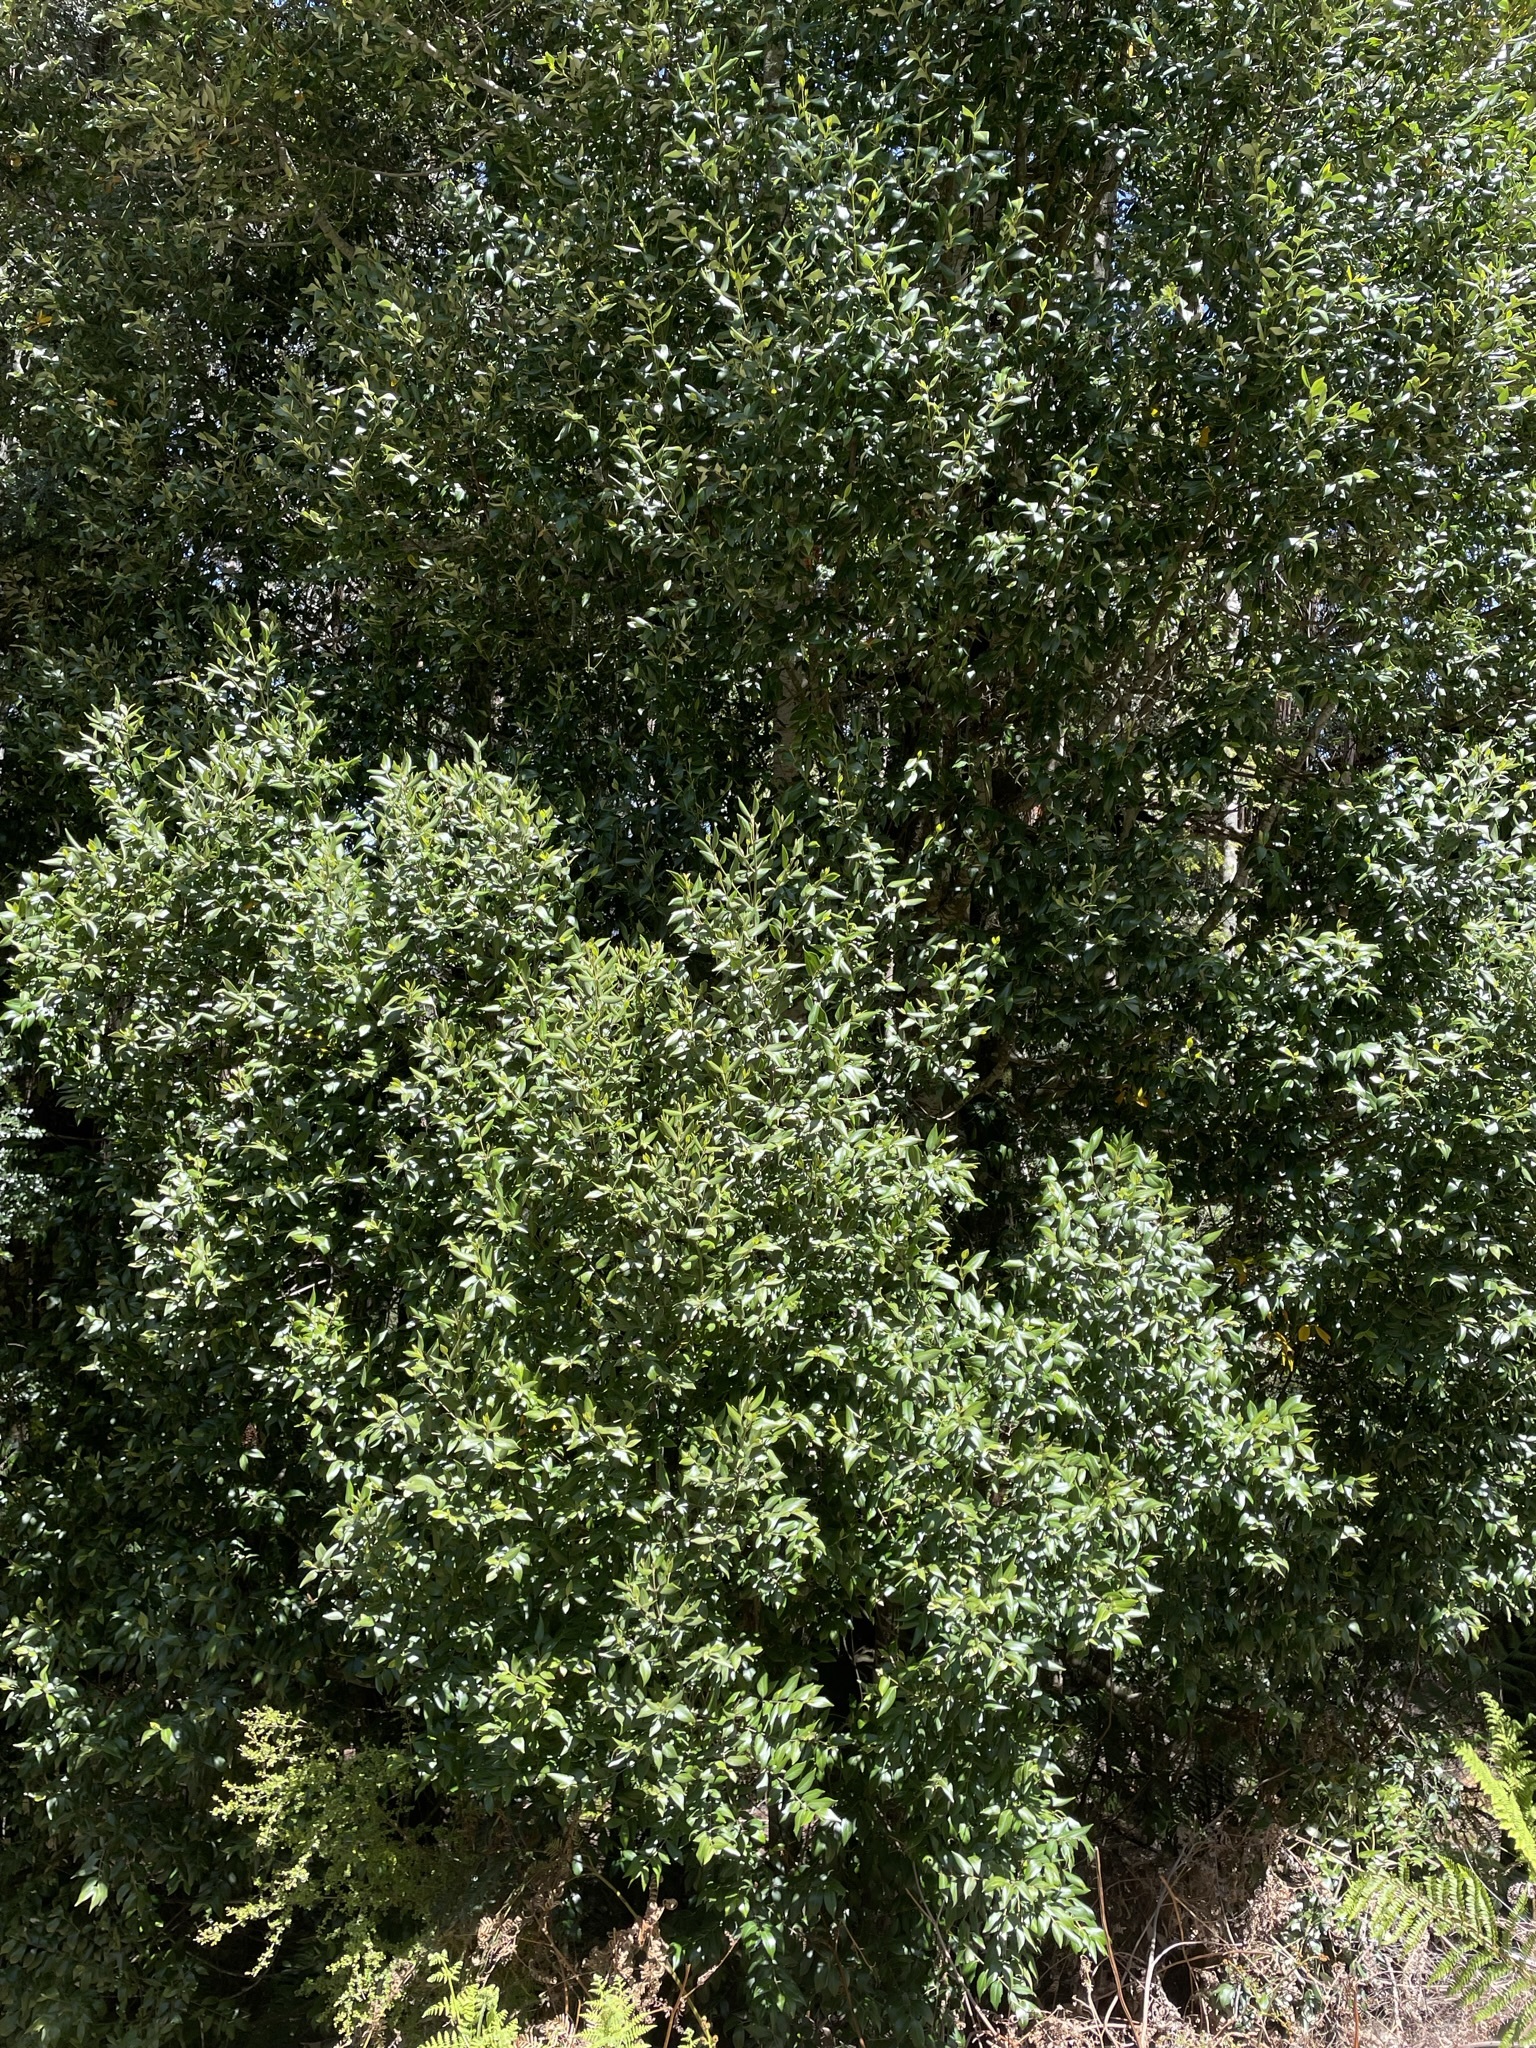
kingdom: Plantae
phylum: Tracheophyta
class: Magnoliopsida
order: Laurales
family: Atherospermataceae
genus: Atherosperma
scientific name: Atherosperma moschatum
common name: Tasmanian-sassafras
